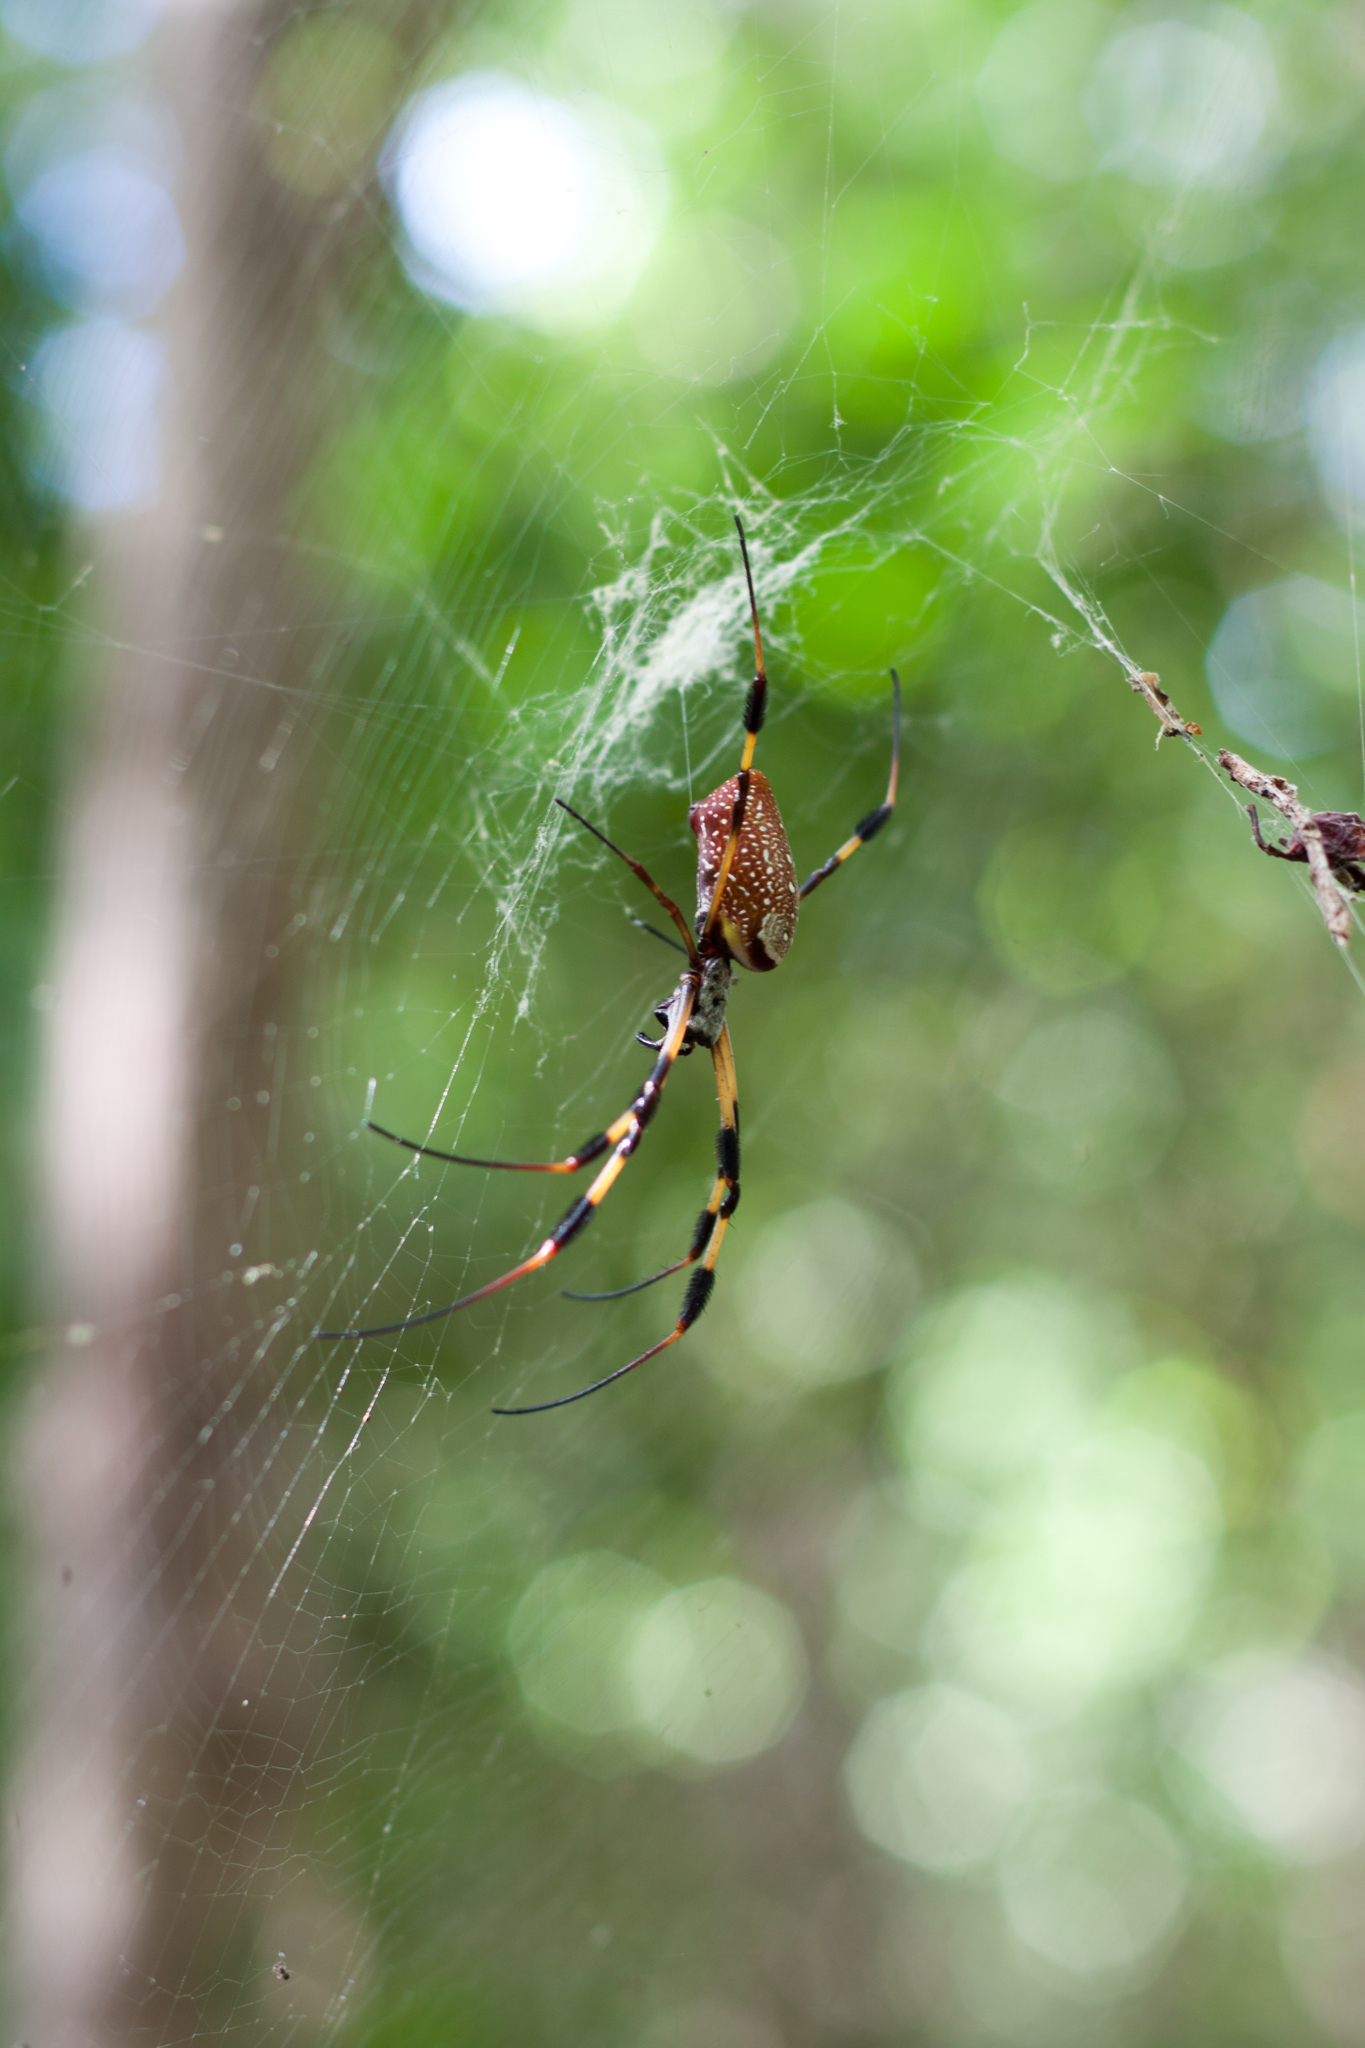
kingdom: Animalia
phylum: Arthropoda
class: Arachnida
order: Araneae
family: Araneidae
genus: Trichonephila
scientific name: Trichonephila clavipes
